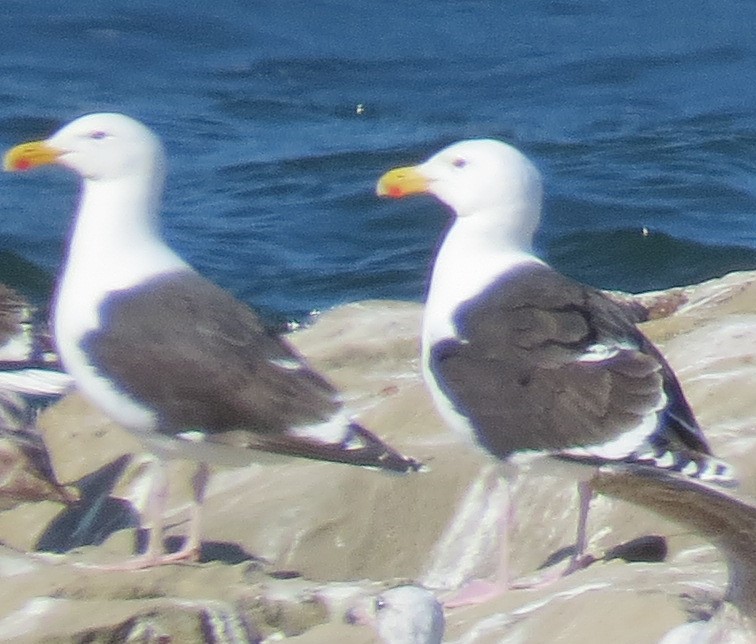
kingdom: Animalia
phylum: Chordata
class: Aves
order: Charadriiformes
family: Laridae
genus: Larus
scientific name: Larus marinus
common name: Great black-backed gull
